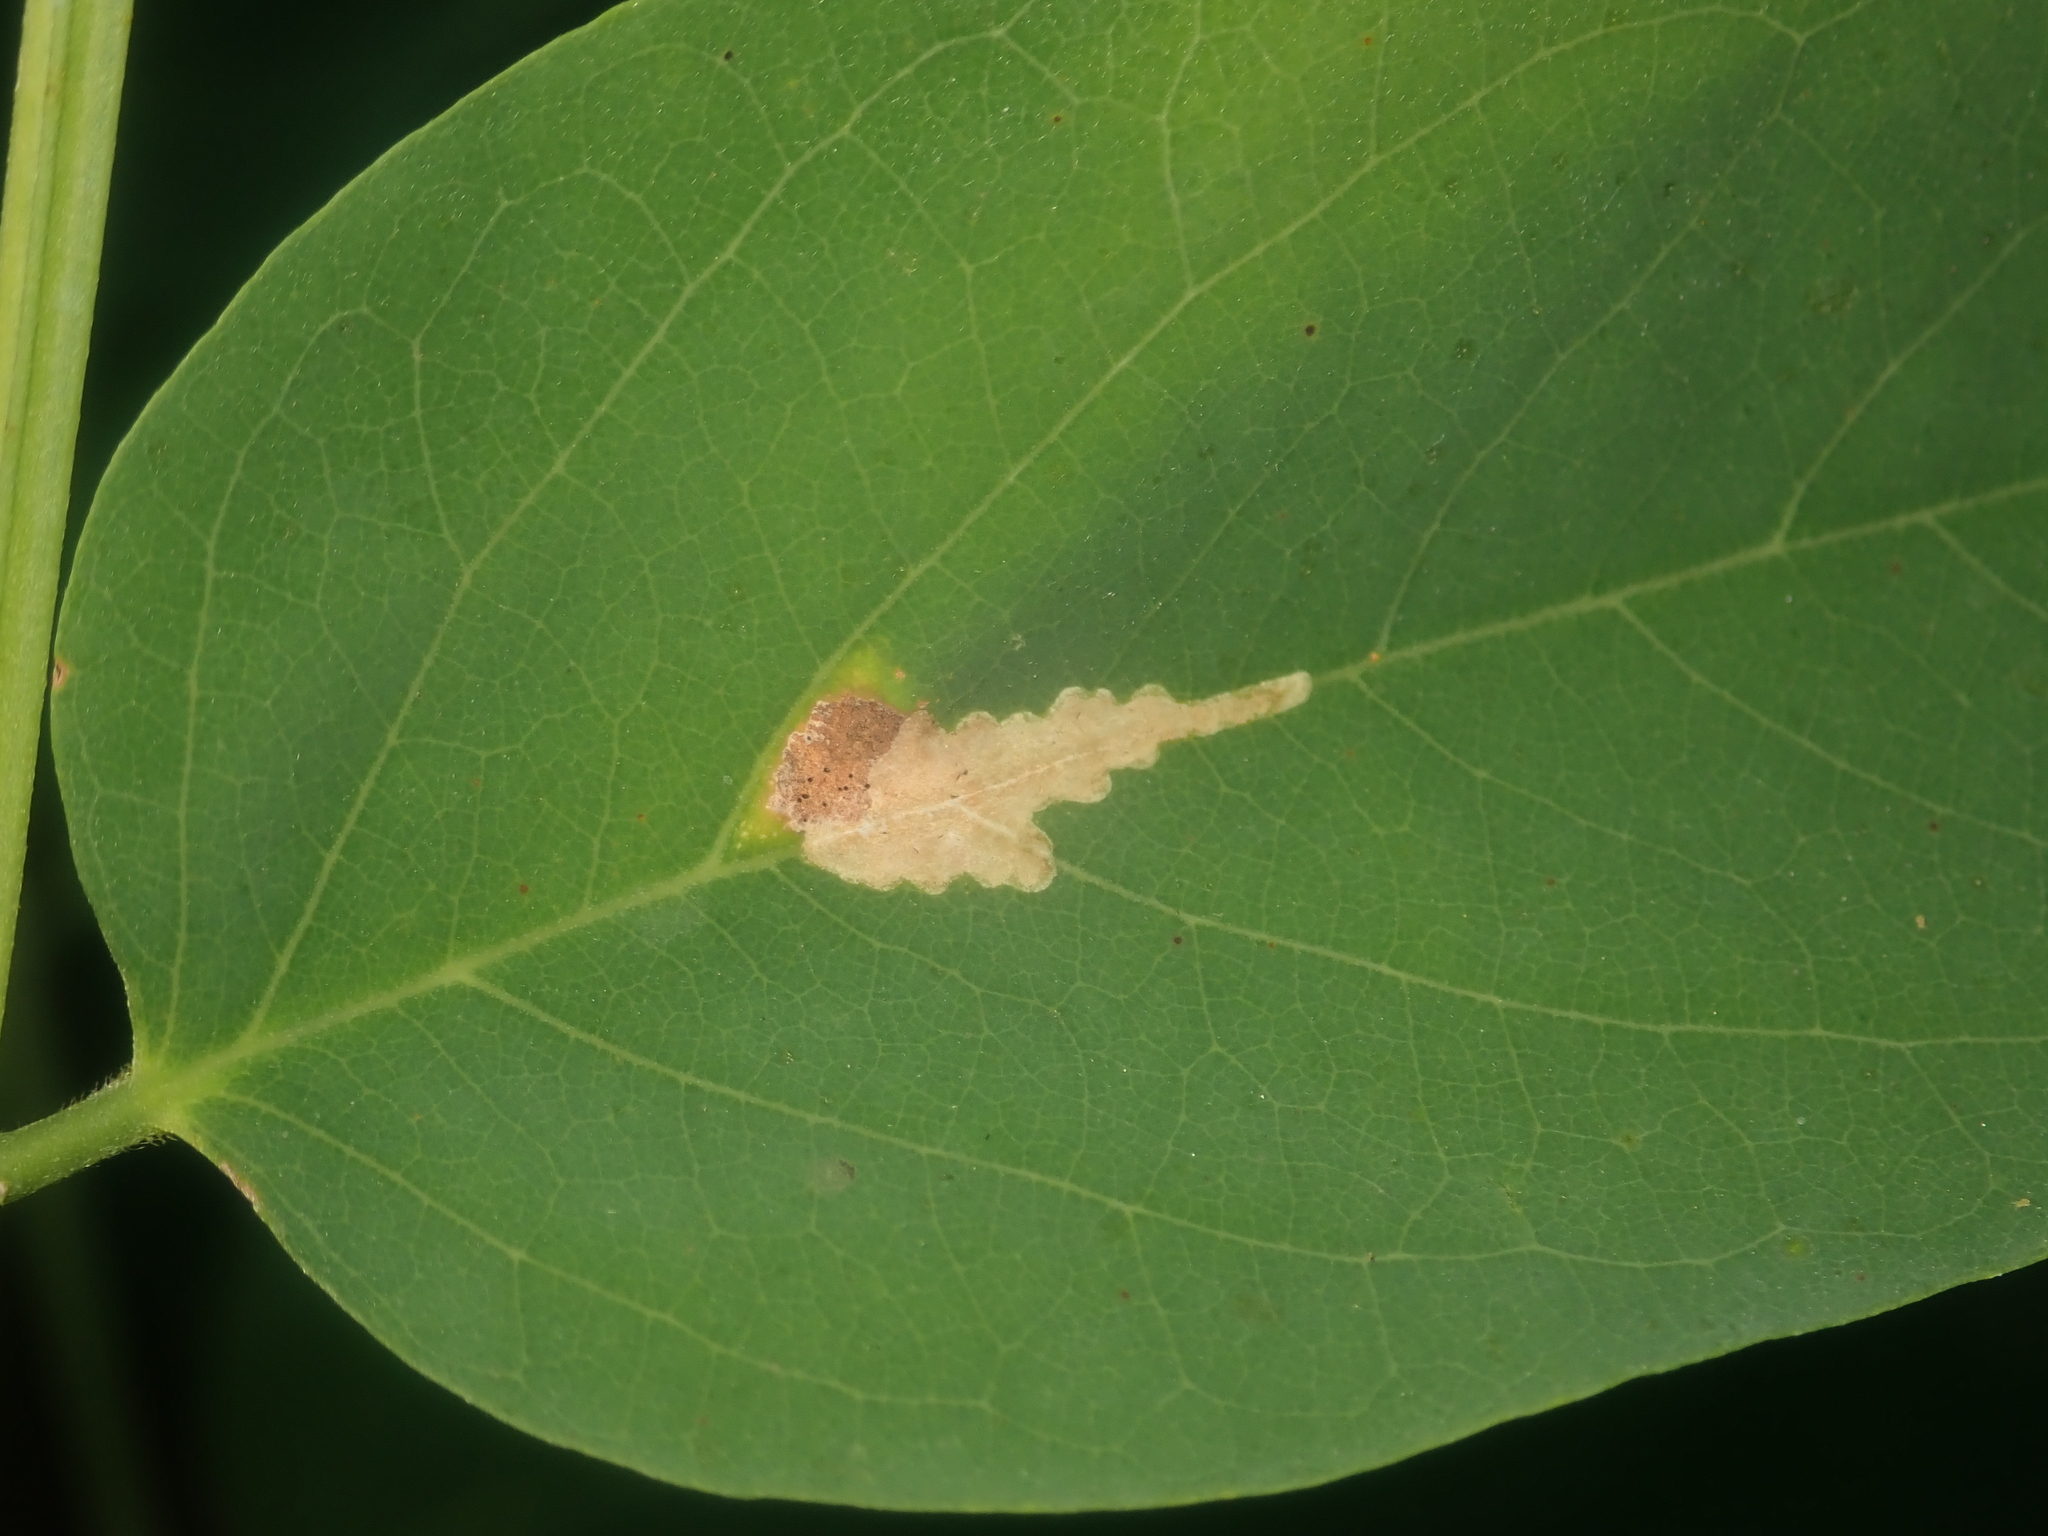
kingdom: Animalia
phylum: Arthropoda
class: Insecta
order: Lepidoptera
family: Gracillariidae
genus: Parectopa
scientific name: Parectopa robiniella
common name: Locust digitate leafminer
